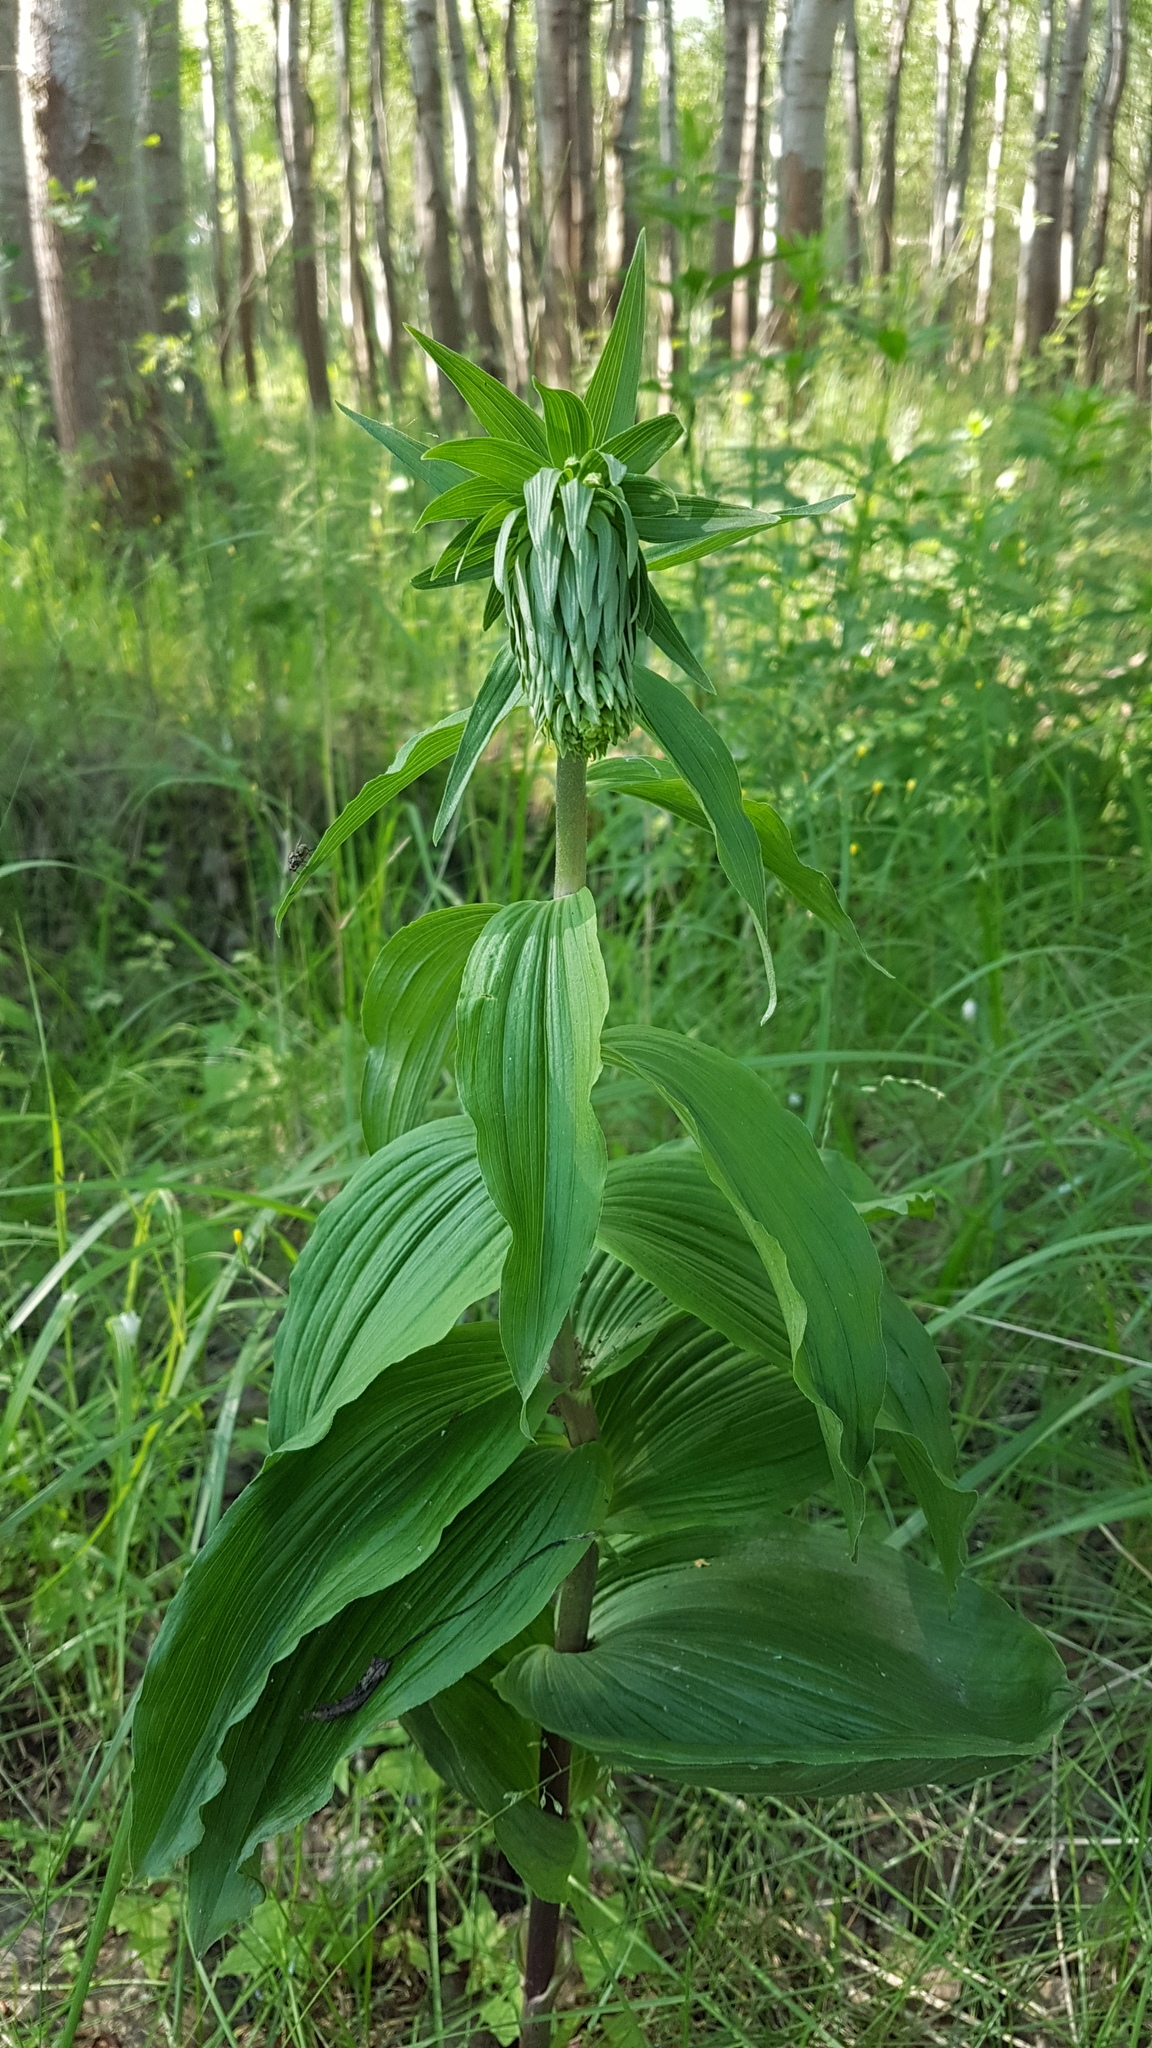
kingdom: Plantae
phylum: Tracheophyta
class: Liliopsida
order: Asparagales
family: Orchidaceae
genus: Epipactis
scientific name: Epipactis helleborine
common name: Broad-leaved helleborine
